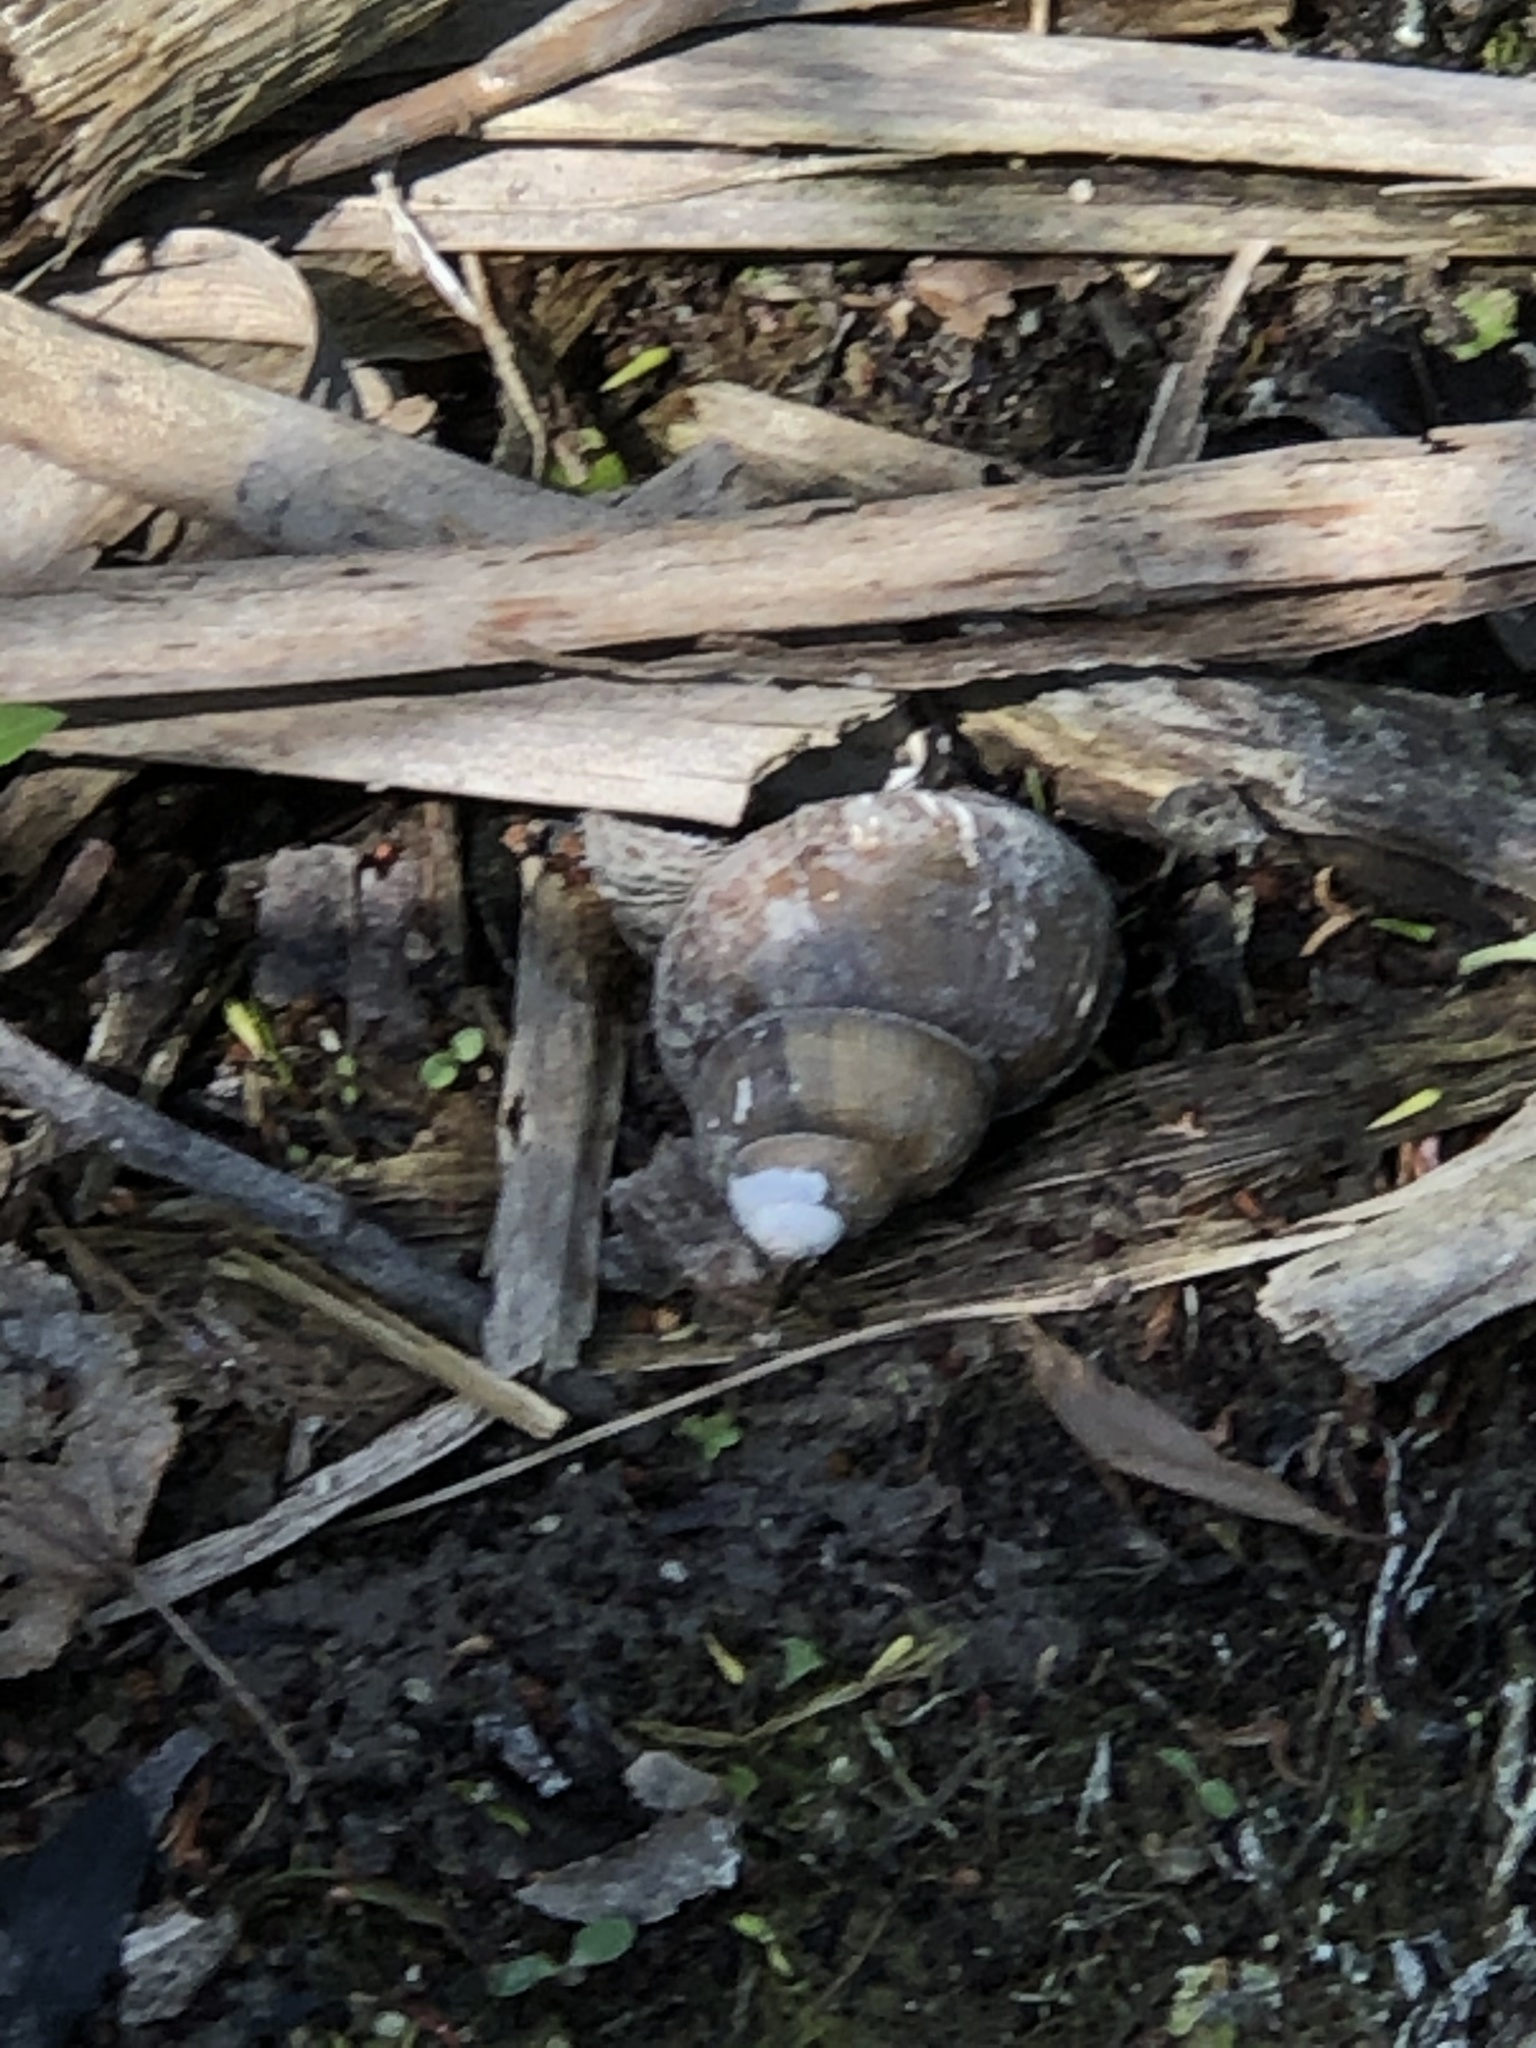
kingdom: Animalia
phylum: Mollusca
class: Gastropoda
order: Architaenioglossa
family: Viviparidae
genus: Cipangopaludina
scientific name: Cipangopaludina chinensis
